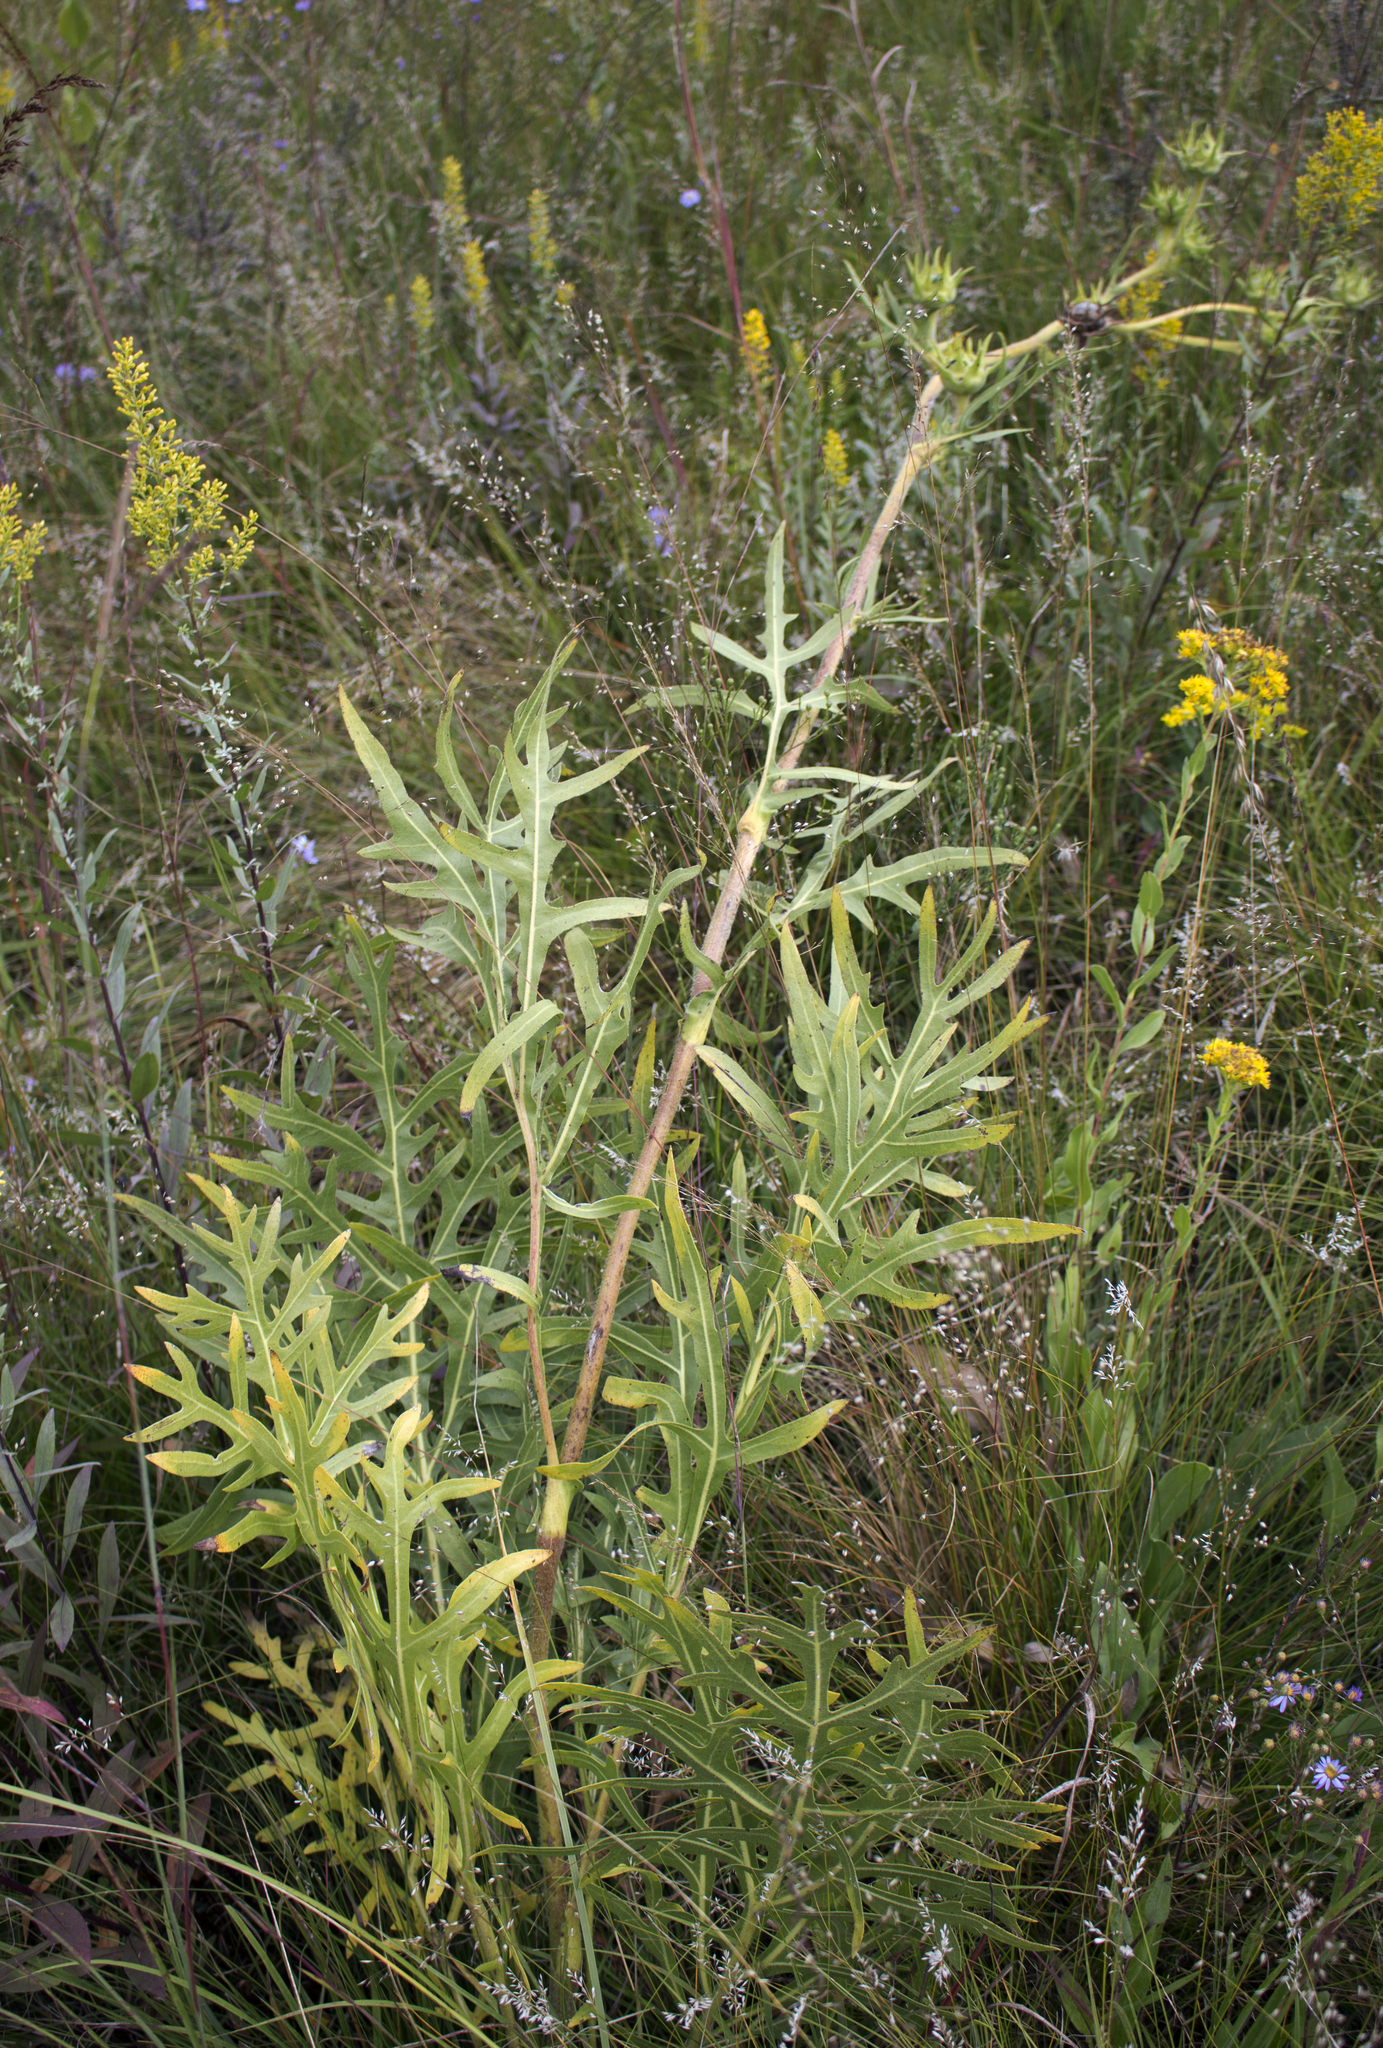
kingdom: Plantae
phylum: Tracheophyta
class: Magnoliopsida
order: Asterales
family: Asteraceae
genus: Silphium
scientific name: Silphium laciniatum
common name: Polarplant
